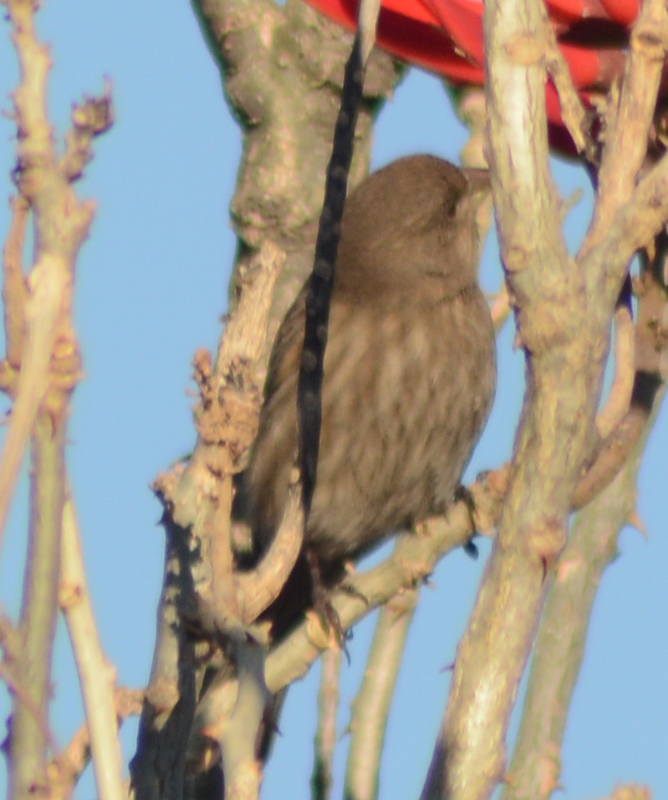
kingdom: Animalia
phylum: Chordata
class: Aves
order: Passeriformes
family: Fringillidae
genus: Haemorhous
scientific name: Haemorhous mexicanus
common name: House finch
